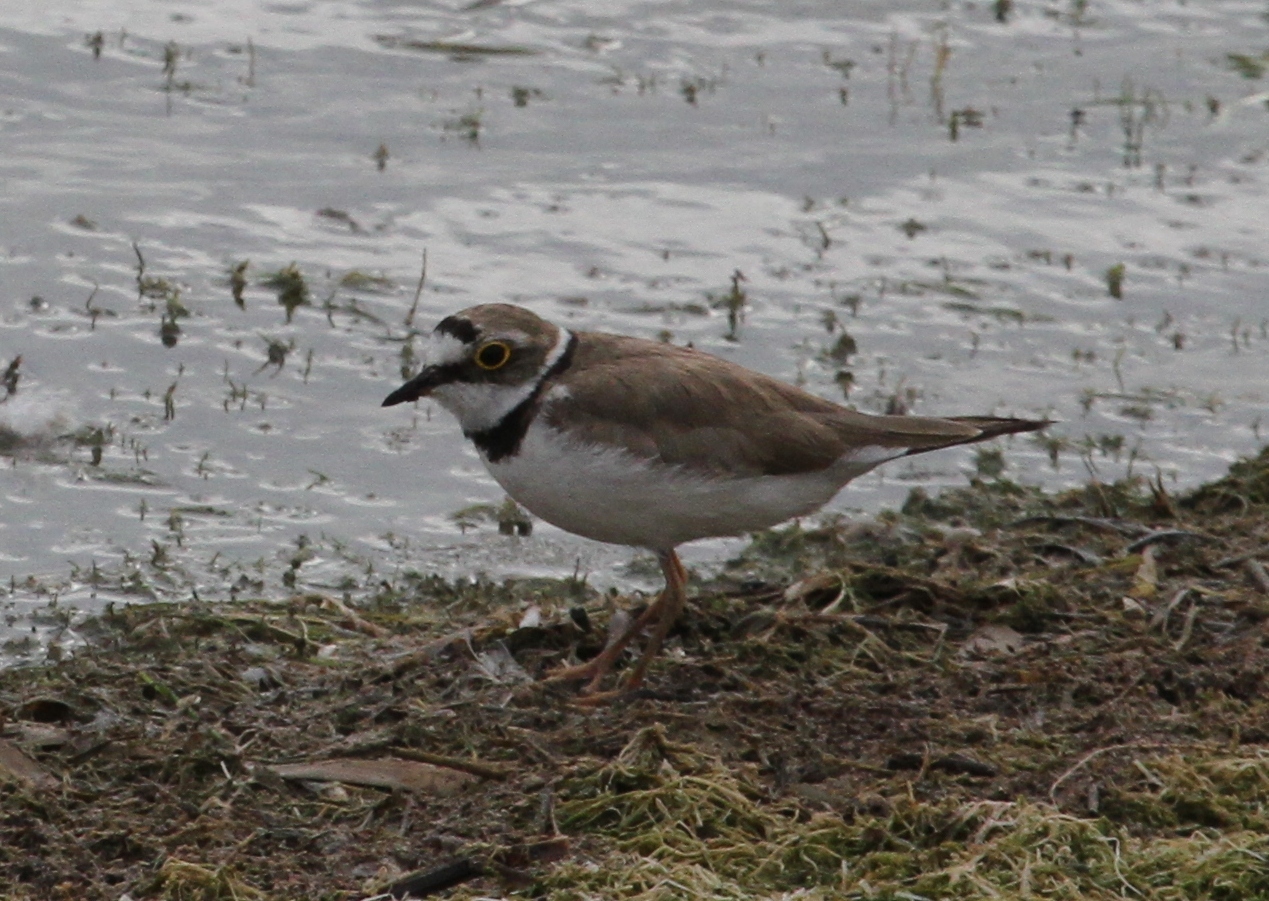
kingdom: Animalia
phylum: Chordata
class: Aves
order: Charadriiformes
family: Charadriidae
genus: Charadrius
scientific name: Charadrius dubius
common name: Little ringed plover
